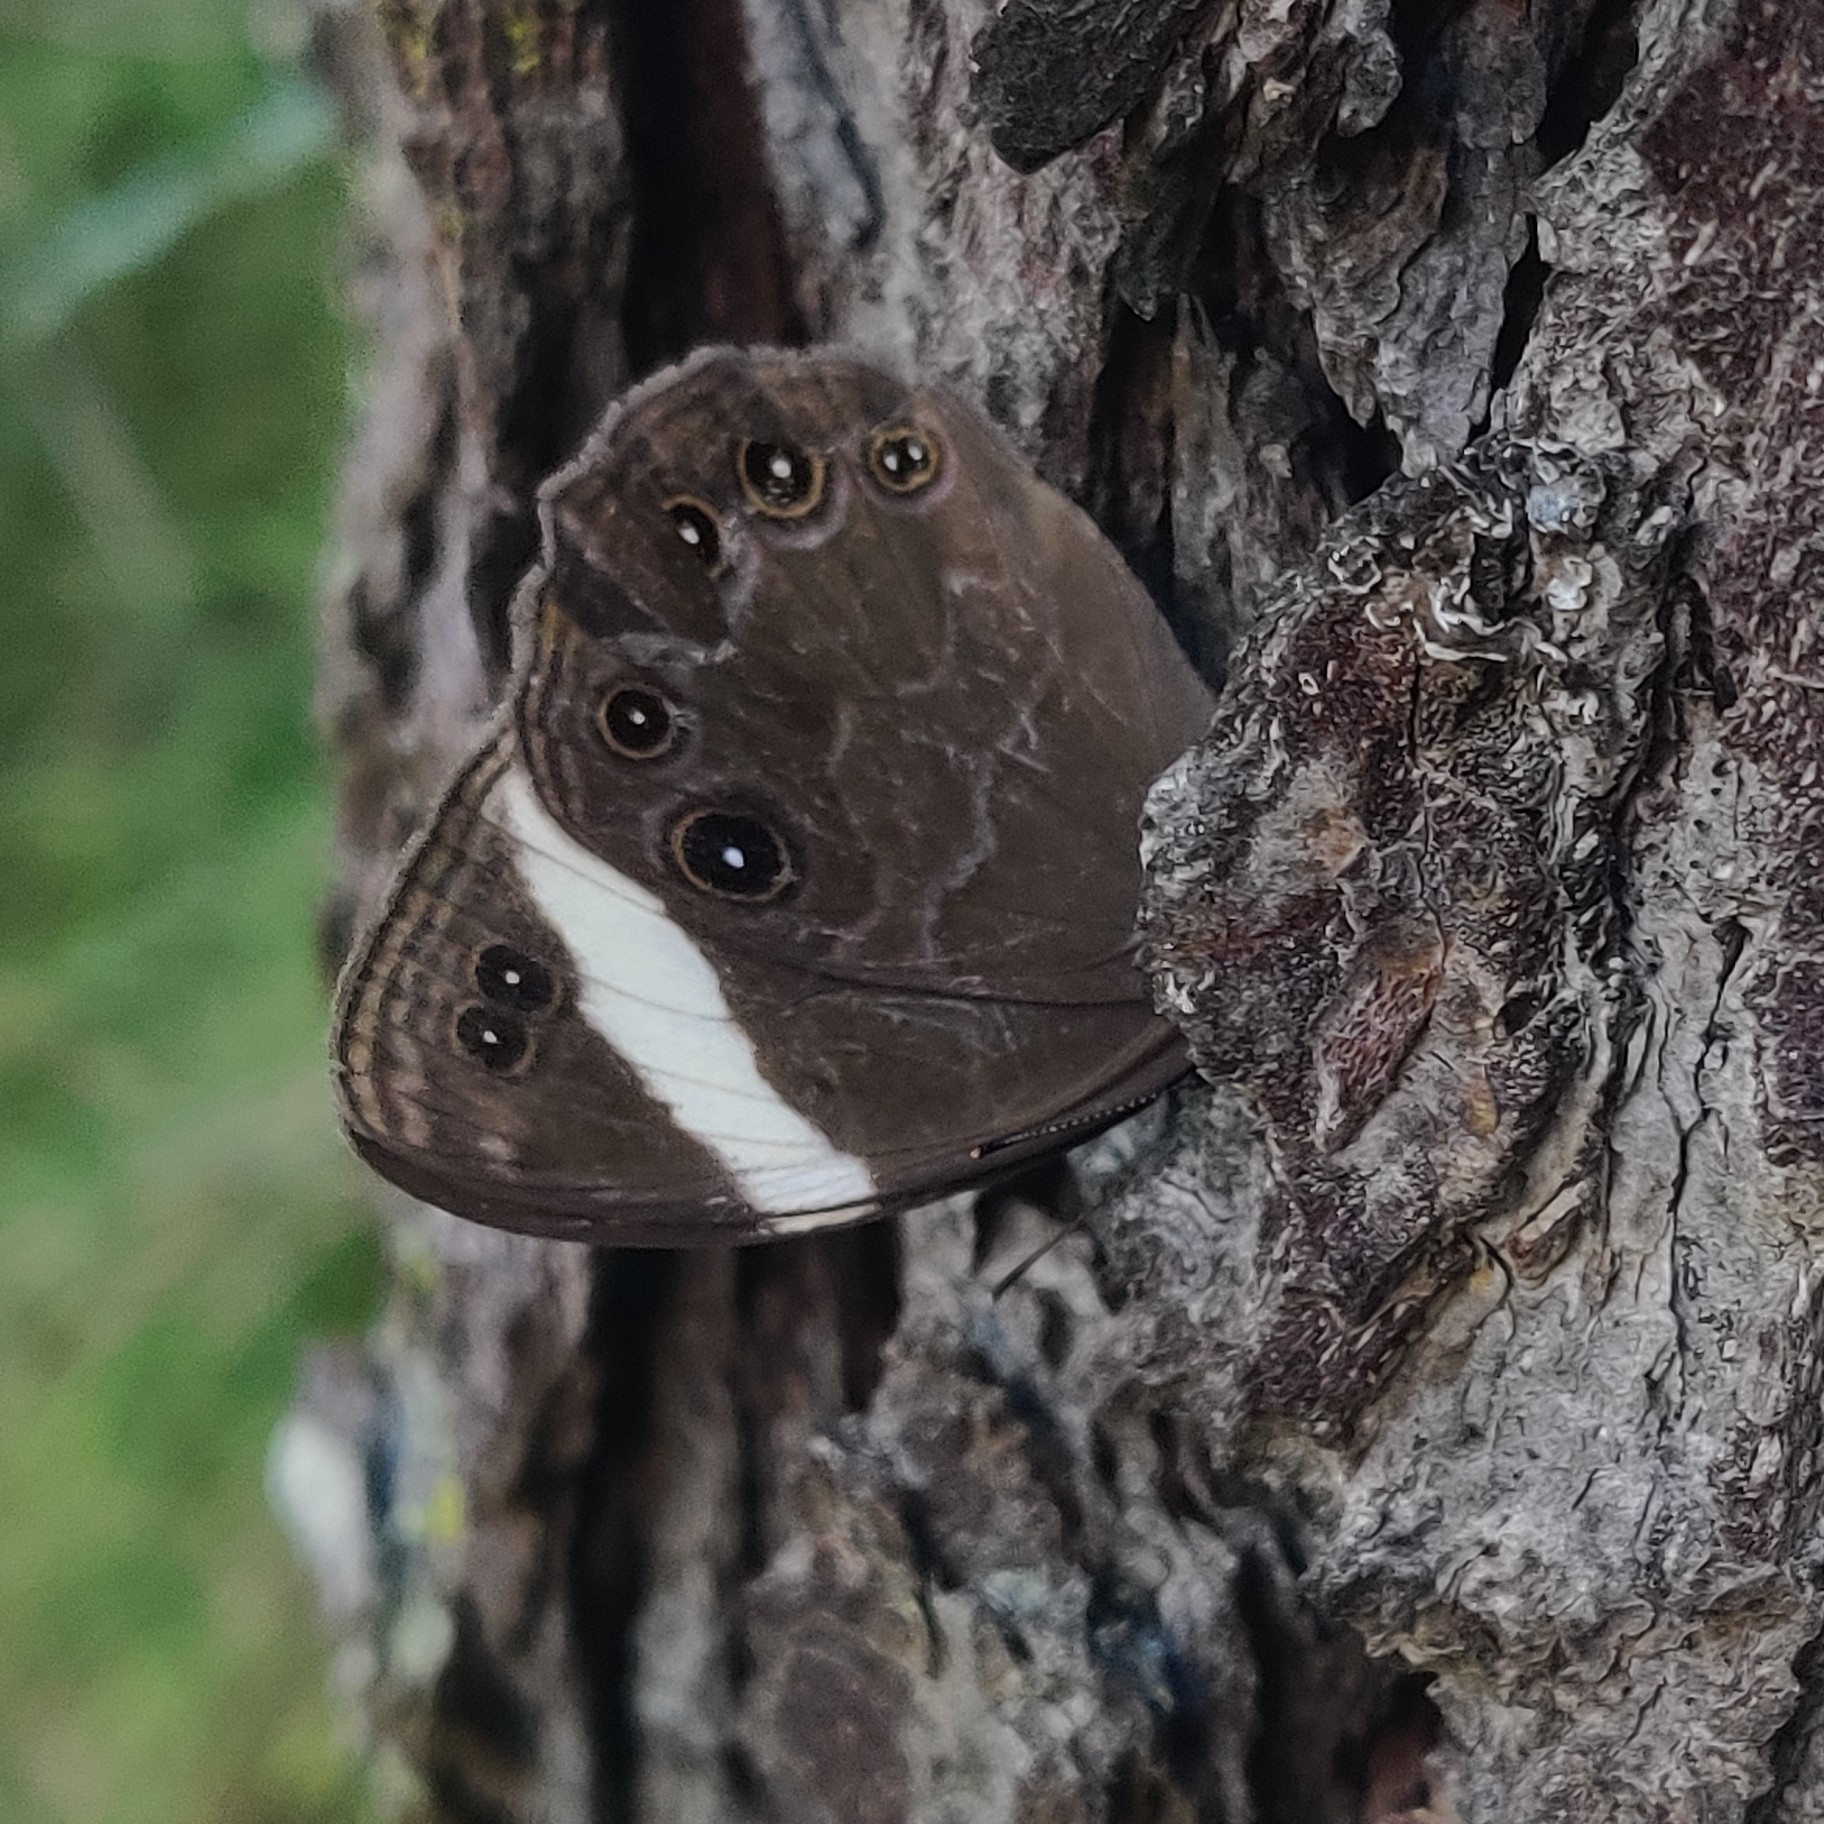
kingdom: Animalia
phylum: Arthropoda
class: Insecta
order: Lepidoptera
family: Nymphalidae
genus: Lethe
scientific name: Lethe verma
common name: Straight-banded treebrown
